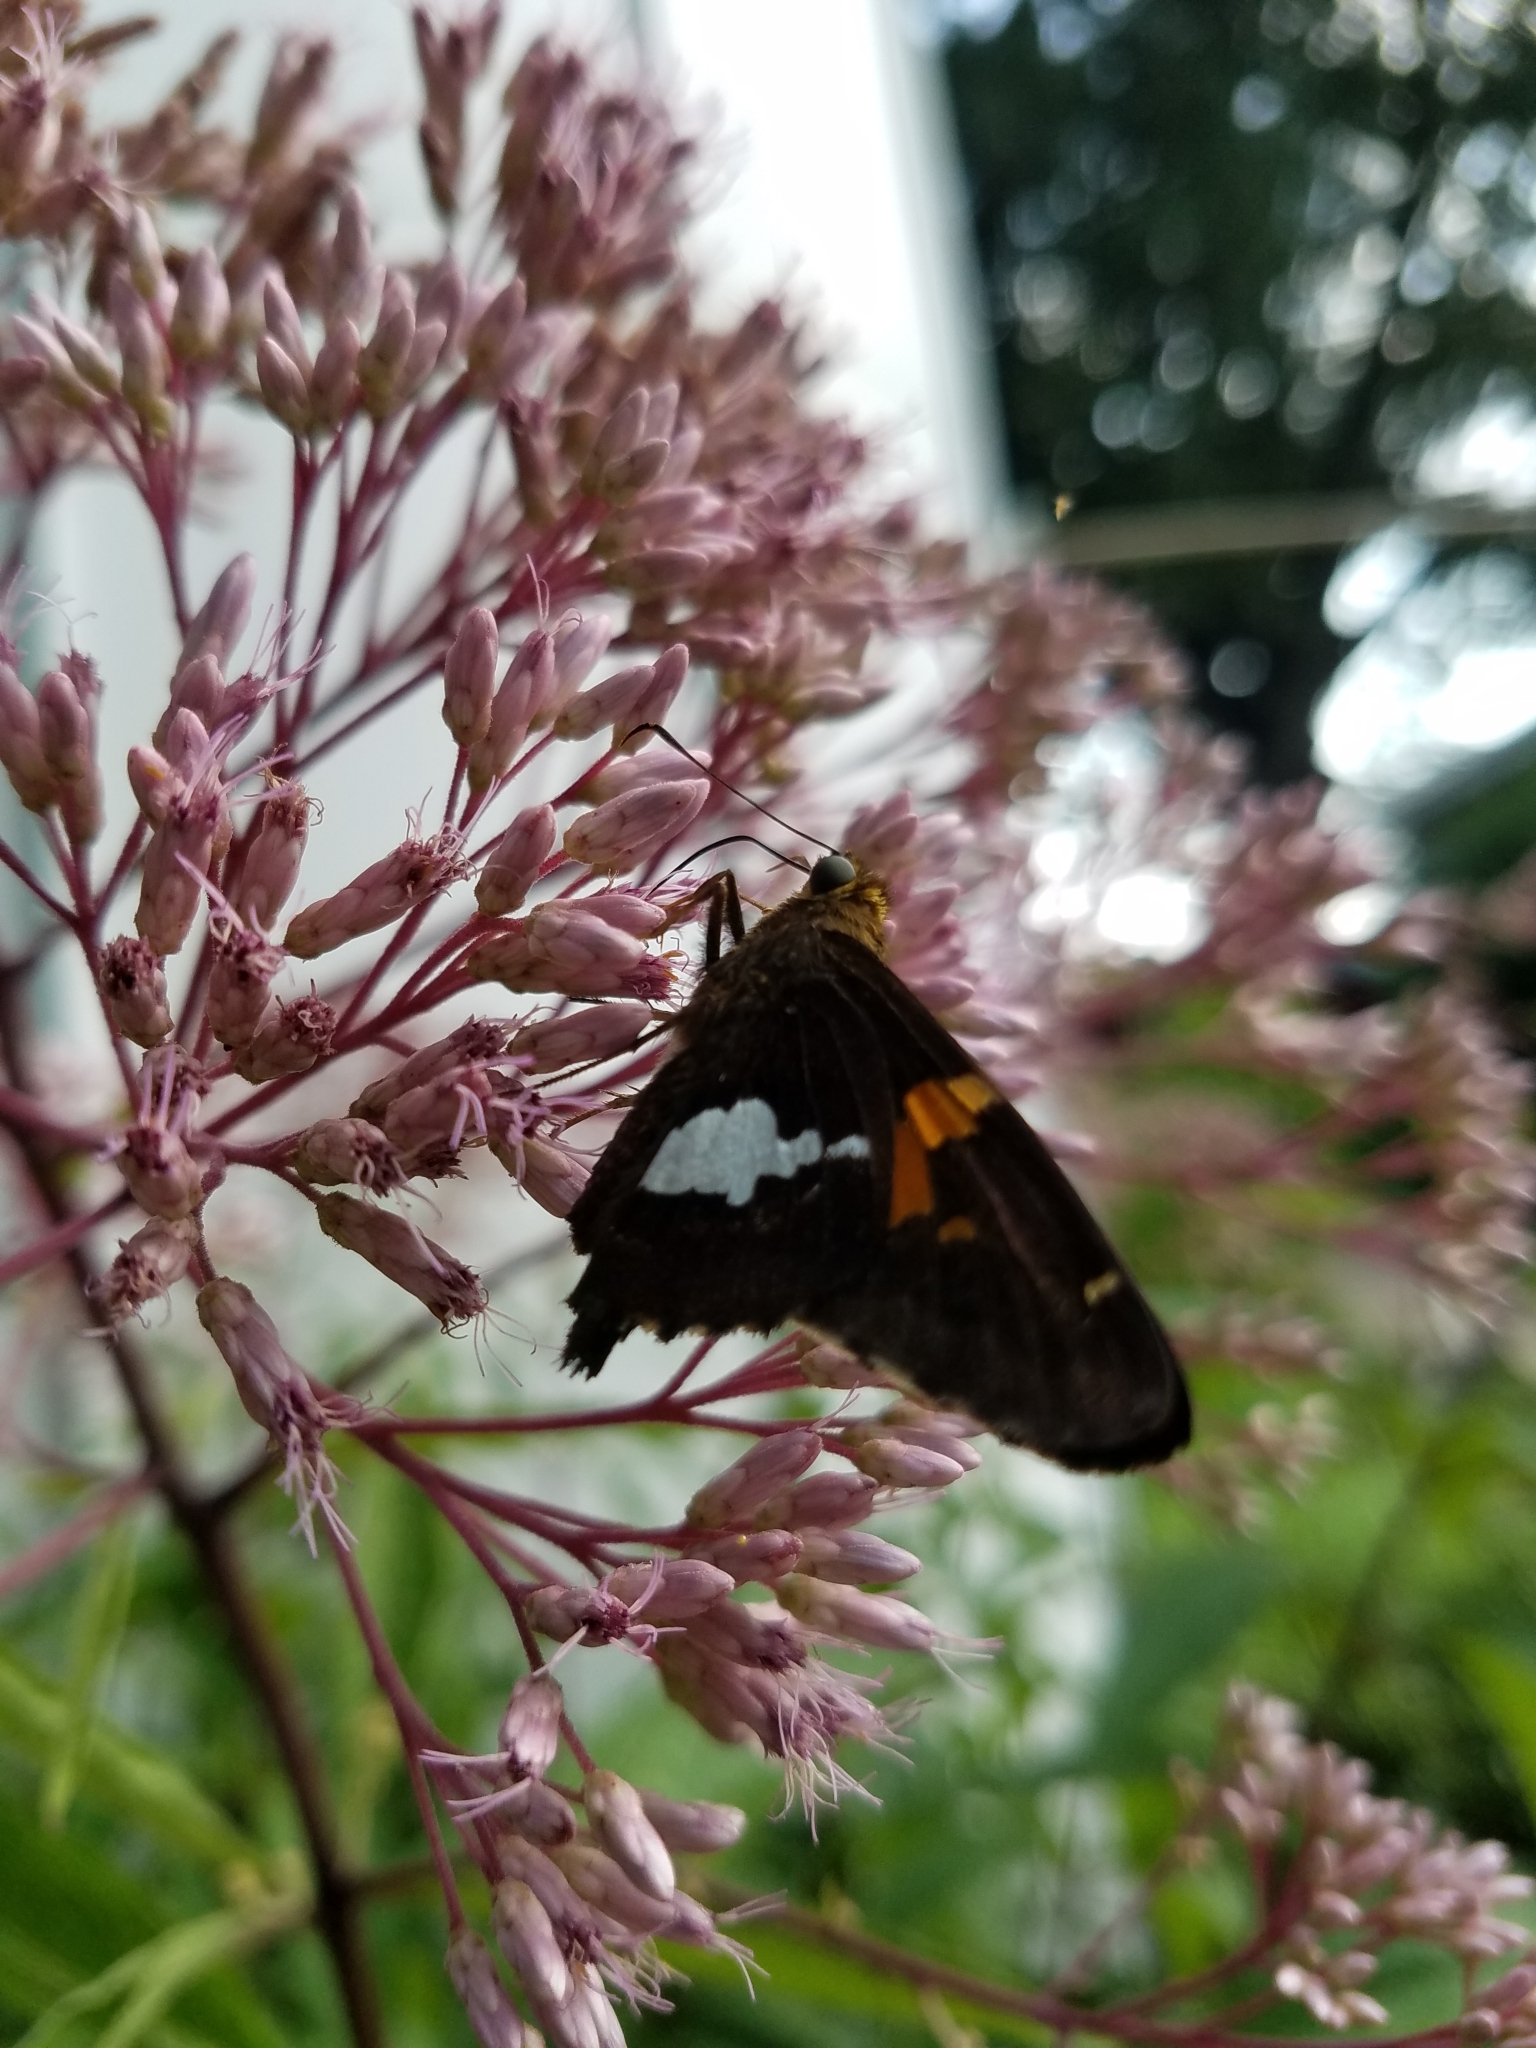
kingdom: Animalia
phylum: Arthropoda
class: Insecta
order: Lepidoptera
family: Hesperiidae
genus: Epargyreus
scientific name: Epargyreus clarus
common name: Silver-spotted skipper
